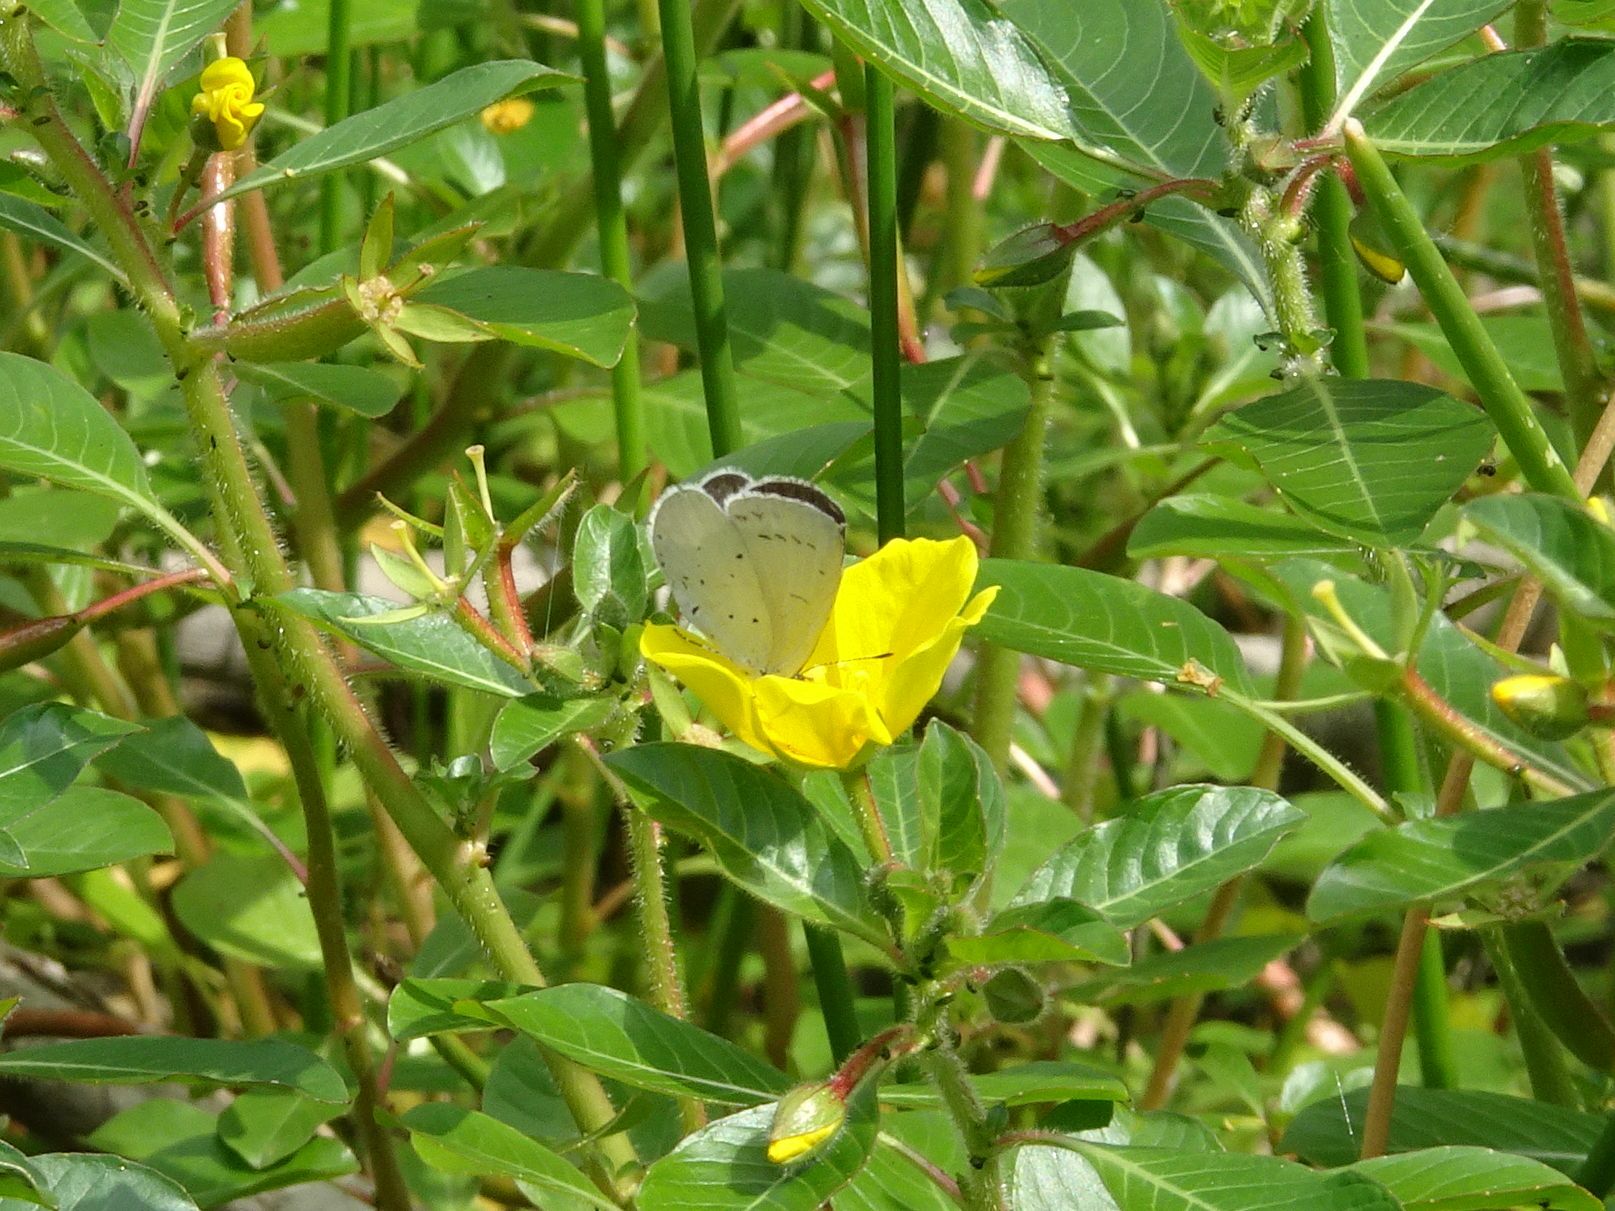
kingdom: Animalia
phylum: Arthropoda
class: Insecta
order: Lepidoptera
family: Lycaenidae
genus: Celastrina
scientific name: Celastrina argiolus
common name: Holly blue
